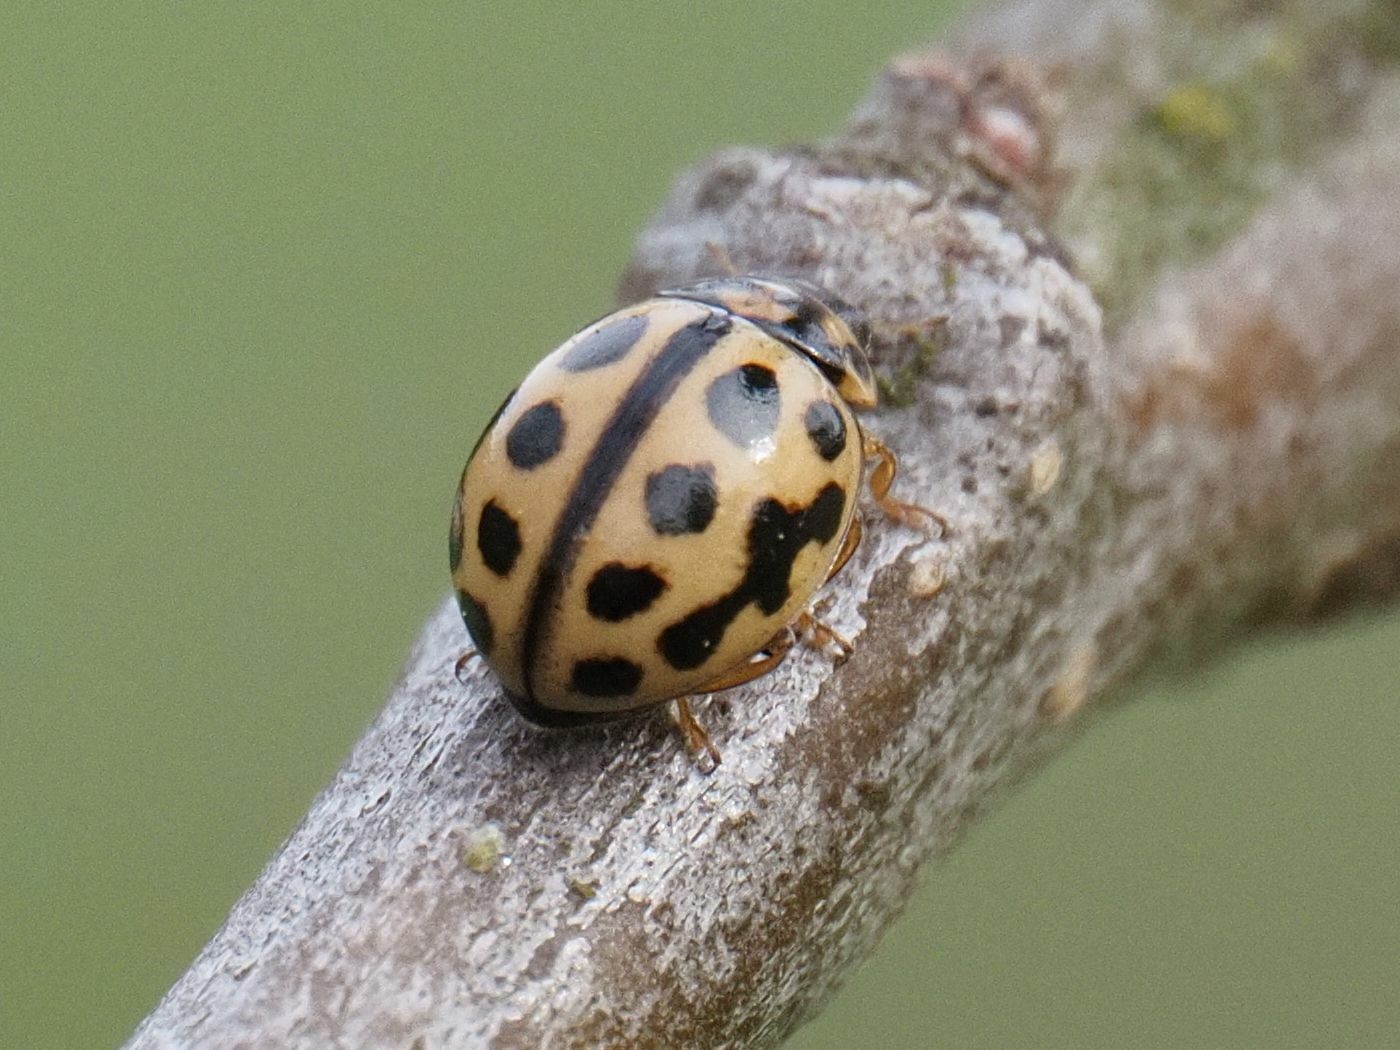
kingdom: Animalia
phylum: Arthropoda
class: Insecta
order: Coleoptera
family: Coccinellidae
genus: Tytthaspis
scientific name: Tytthaspis sedecimpunctata
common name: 16-spot ladybird
